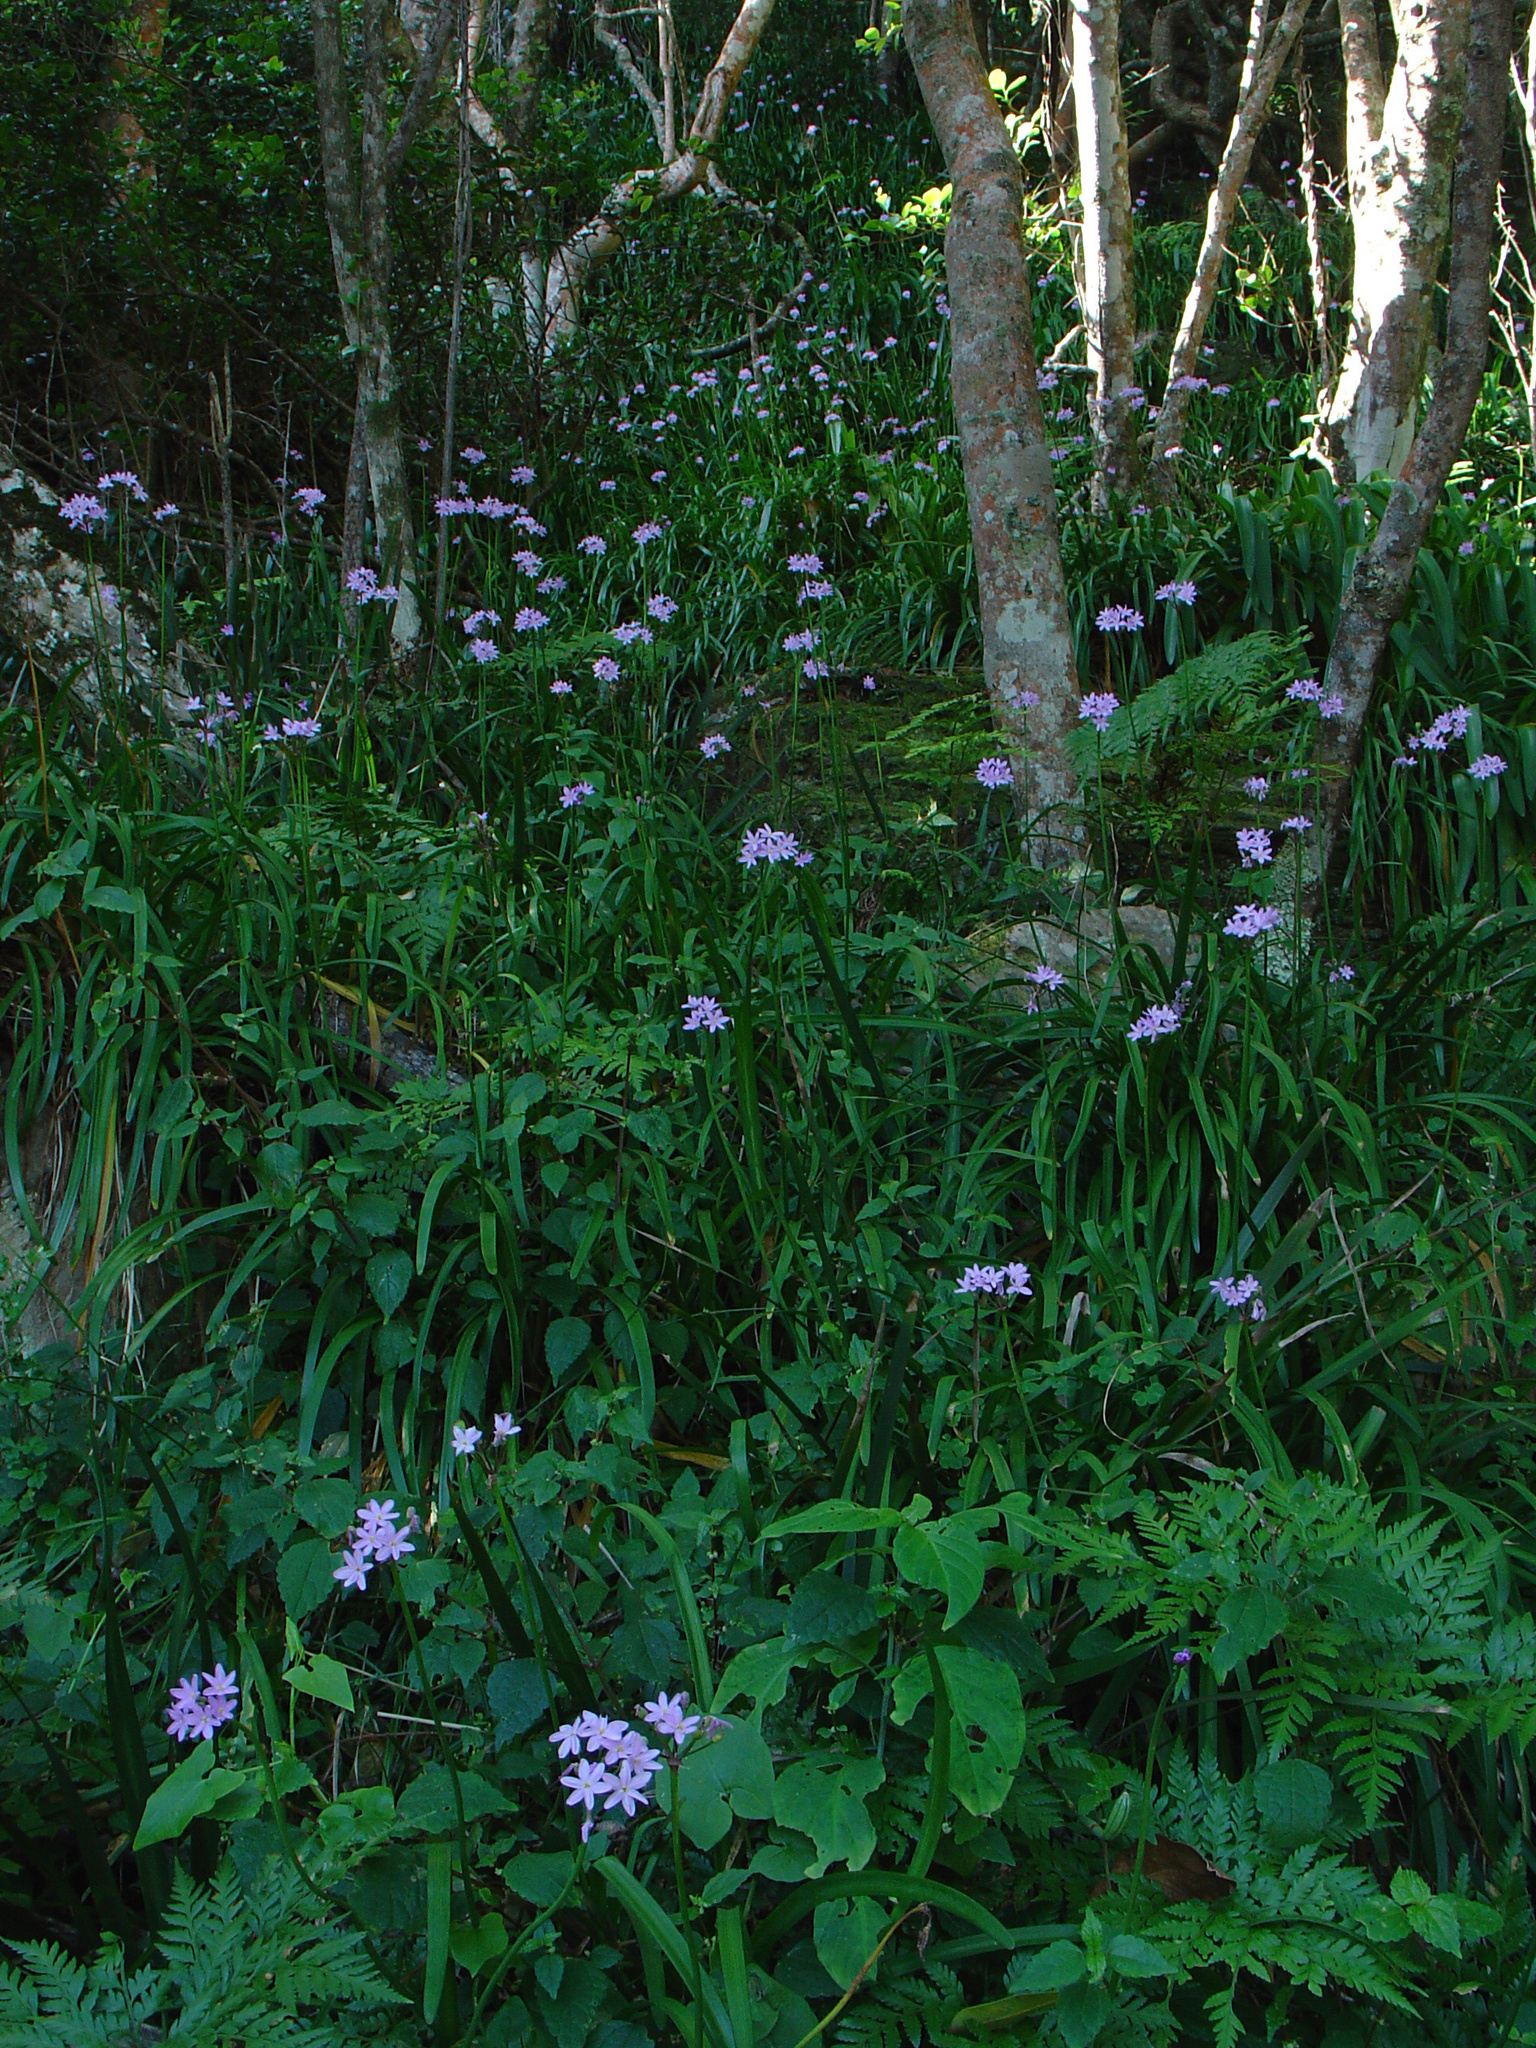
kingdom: Plantae
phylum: Tracheophyta
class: Liliopsida
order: Asparagales
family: Amaryllidaceae
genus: Tulbaghia
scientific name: Tulbaghia maritima
